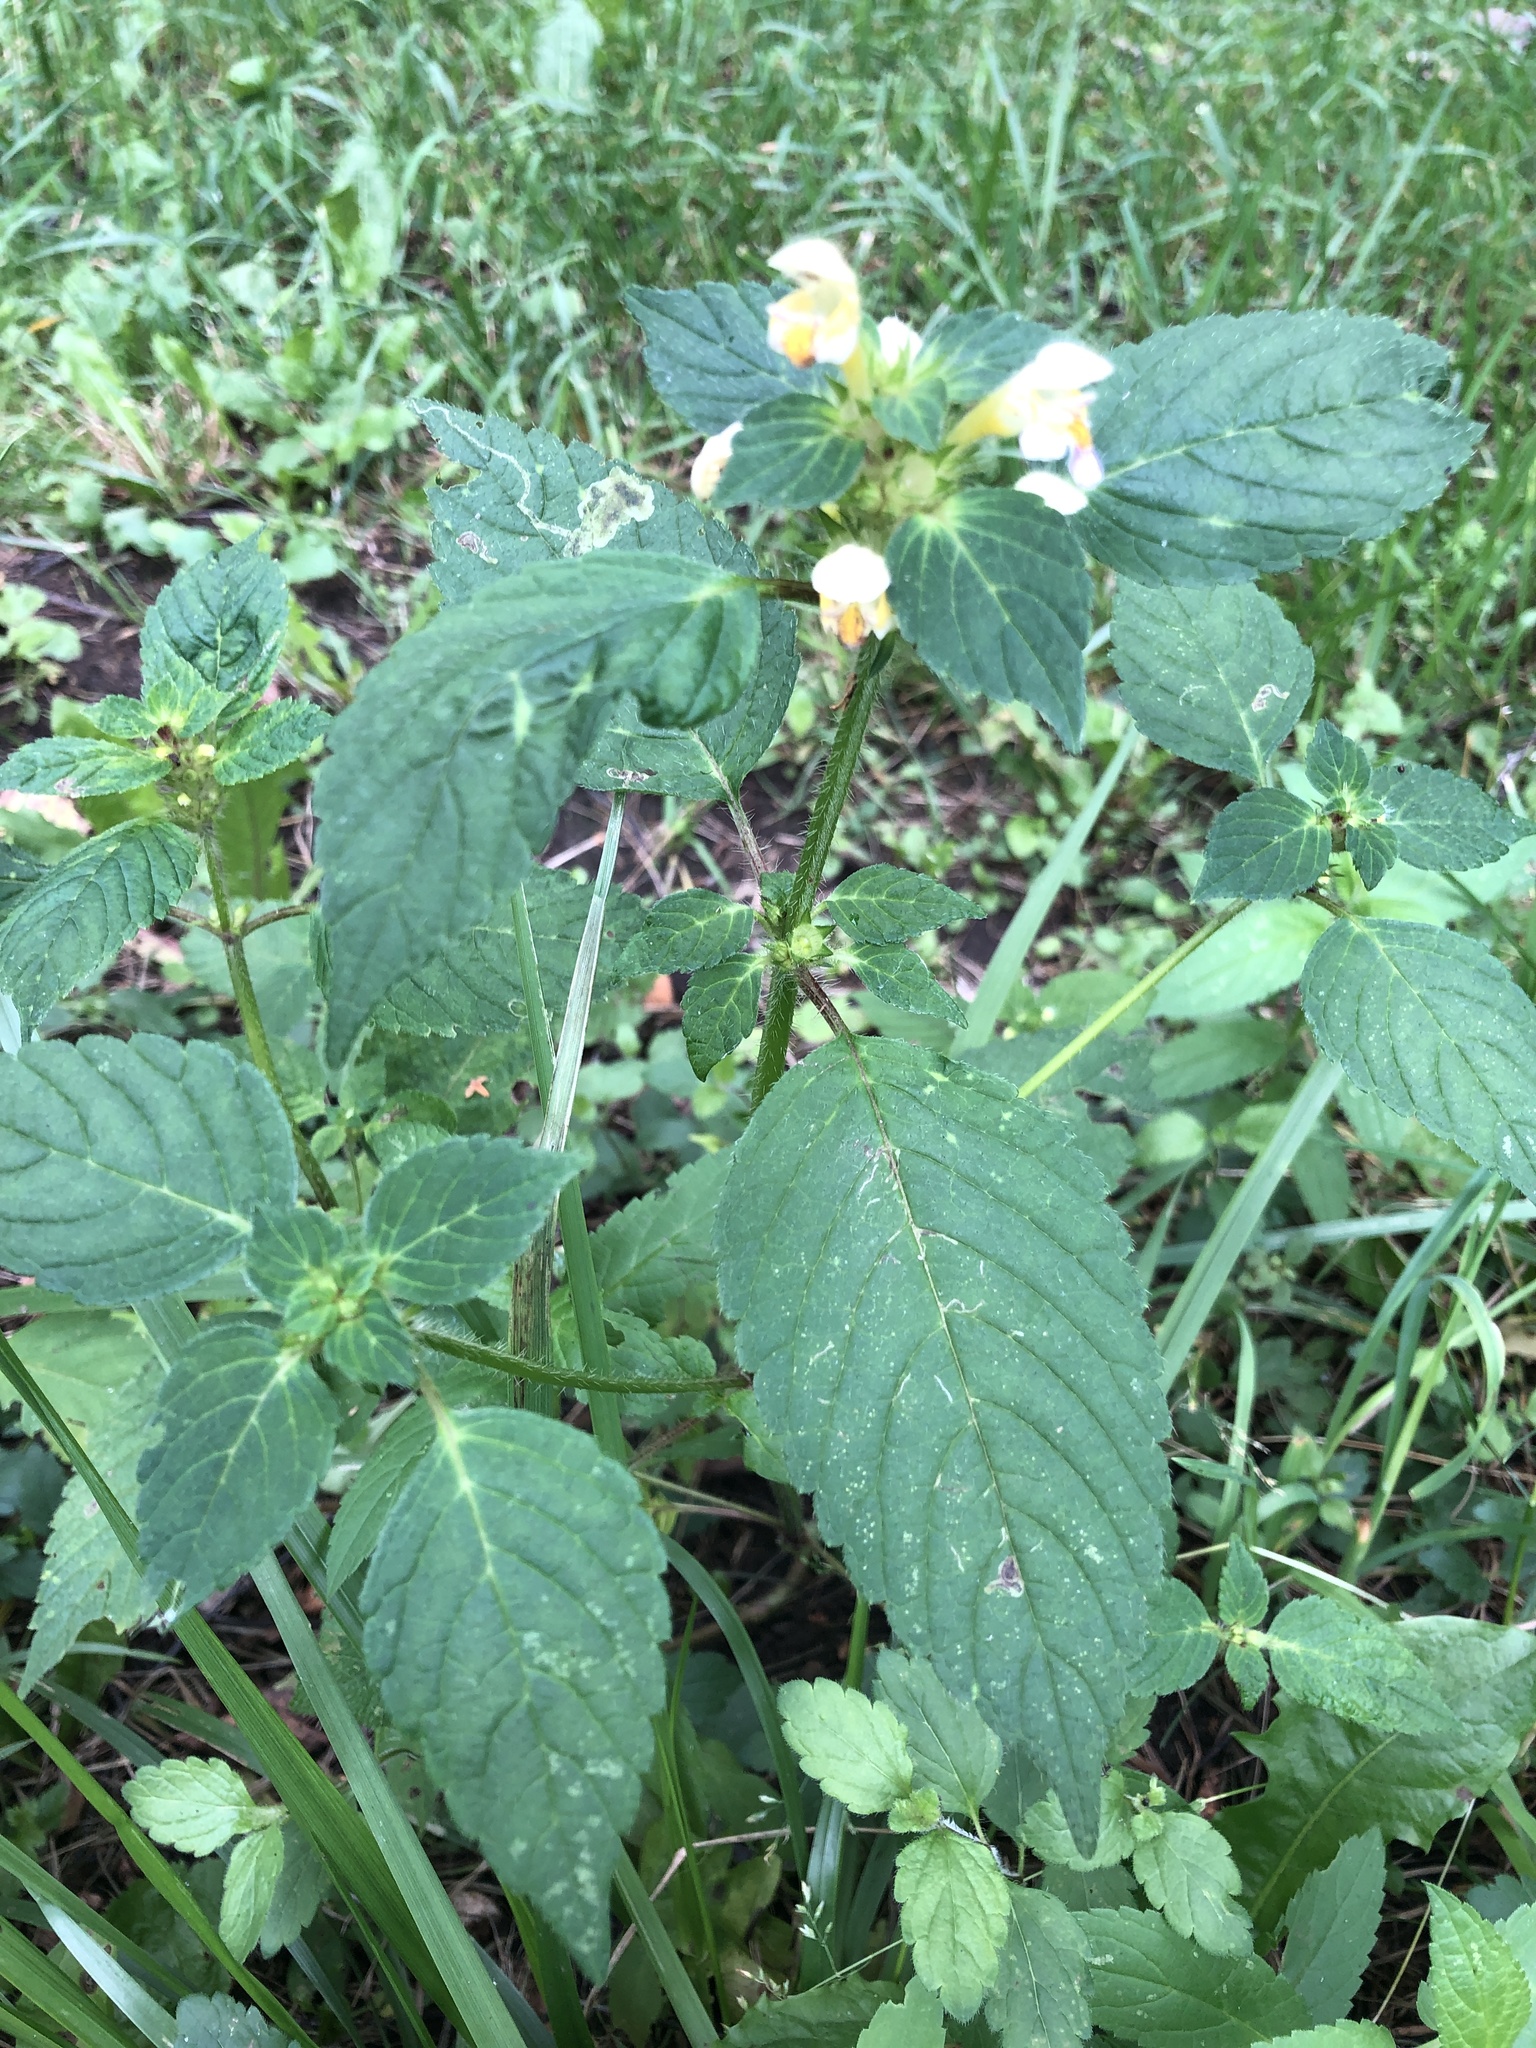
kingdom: Plantae
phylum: Tracheophyta
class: Magnoliopsida
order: Lamiales
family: Lamiaceae
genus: Galeopsis
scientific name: Galeopsis speciosa
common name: Large-flowered hemp-nettle
